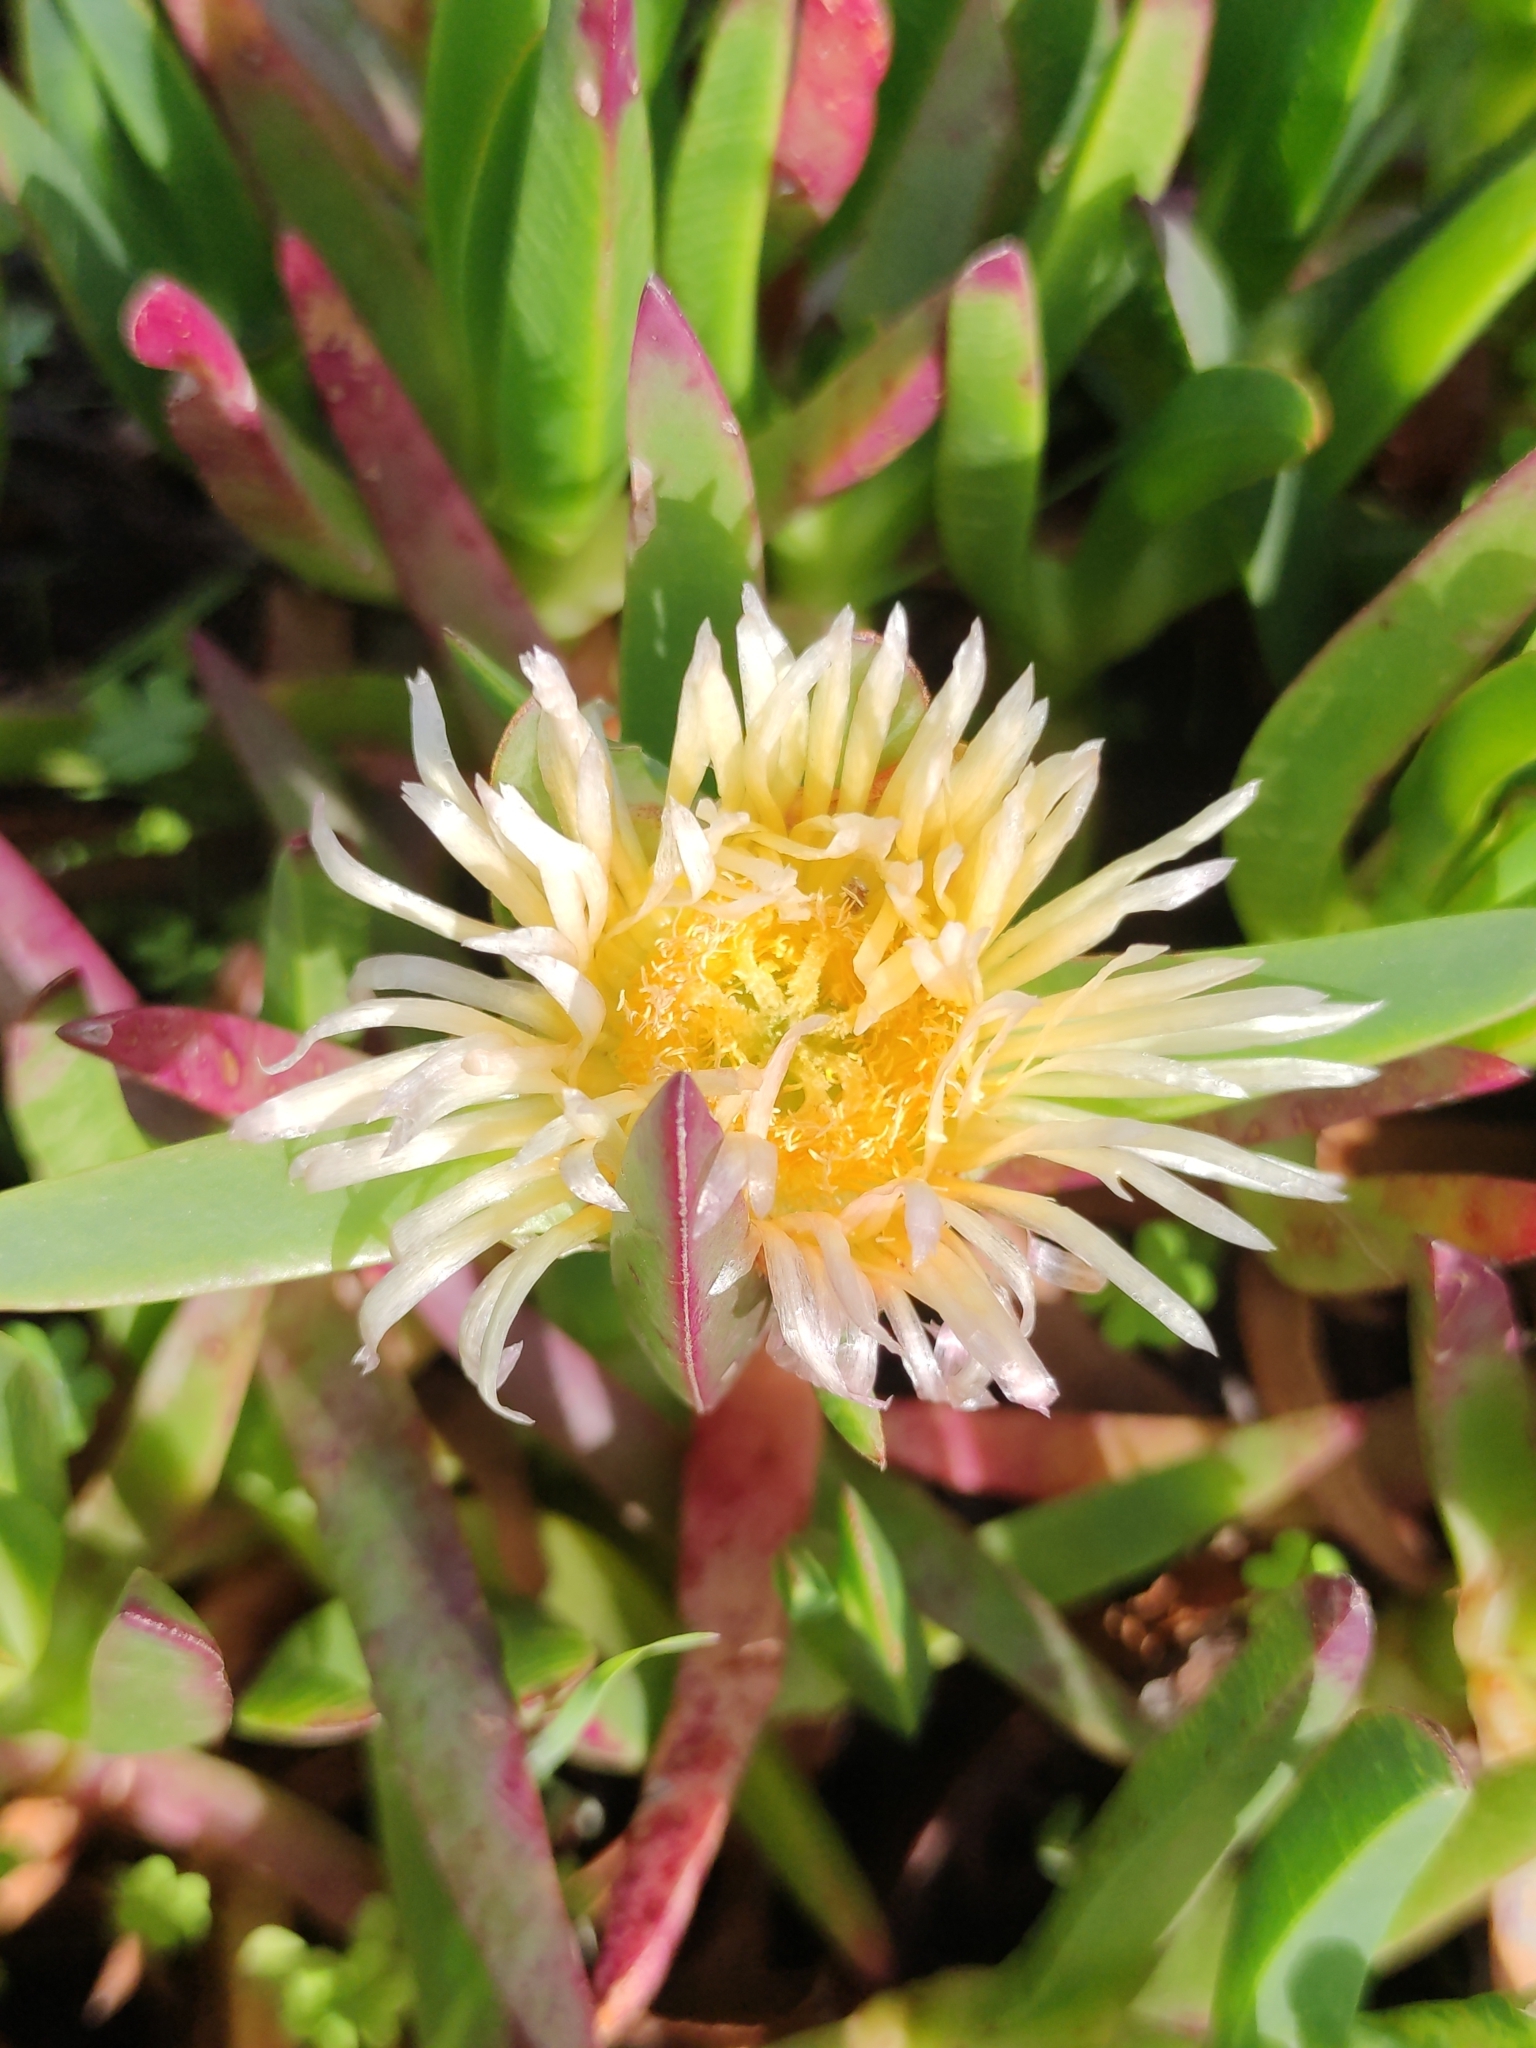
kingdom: Plantae
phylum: Tracheophyta
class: Magnoliopsida
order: Caryophyllales
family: Aizoaceae
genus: Carpobrotus
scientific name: Carpobrotus edulis
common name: Hottentot-fig
